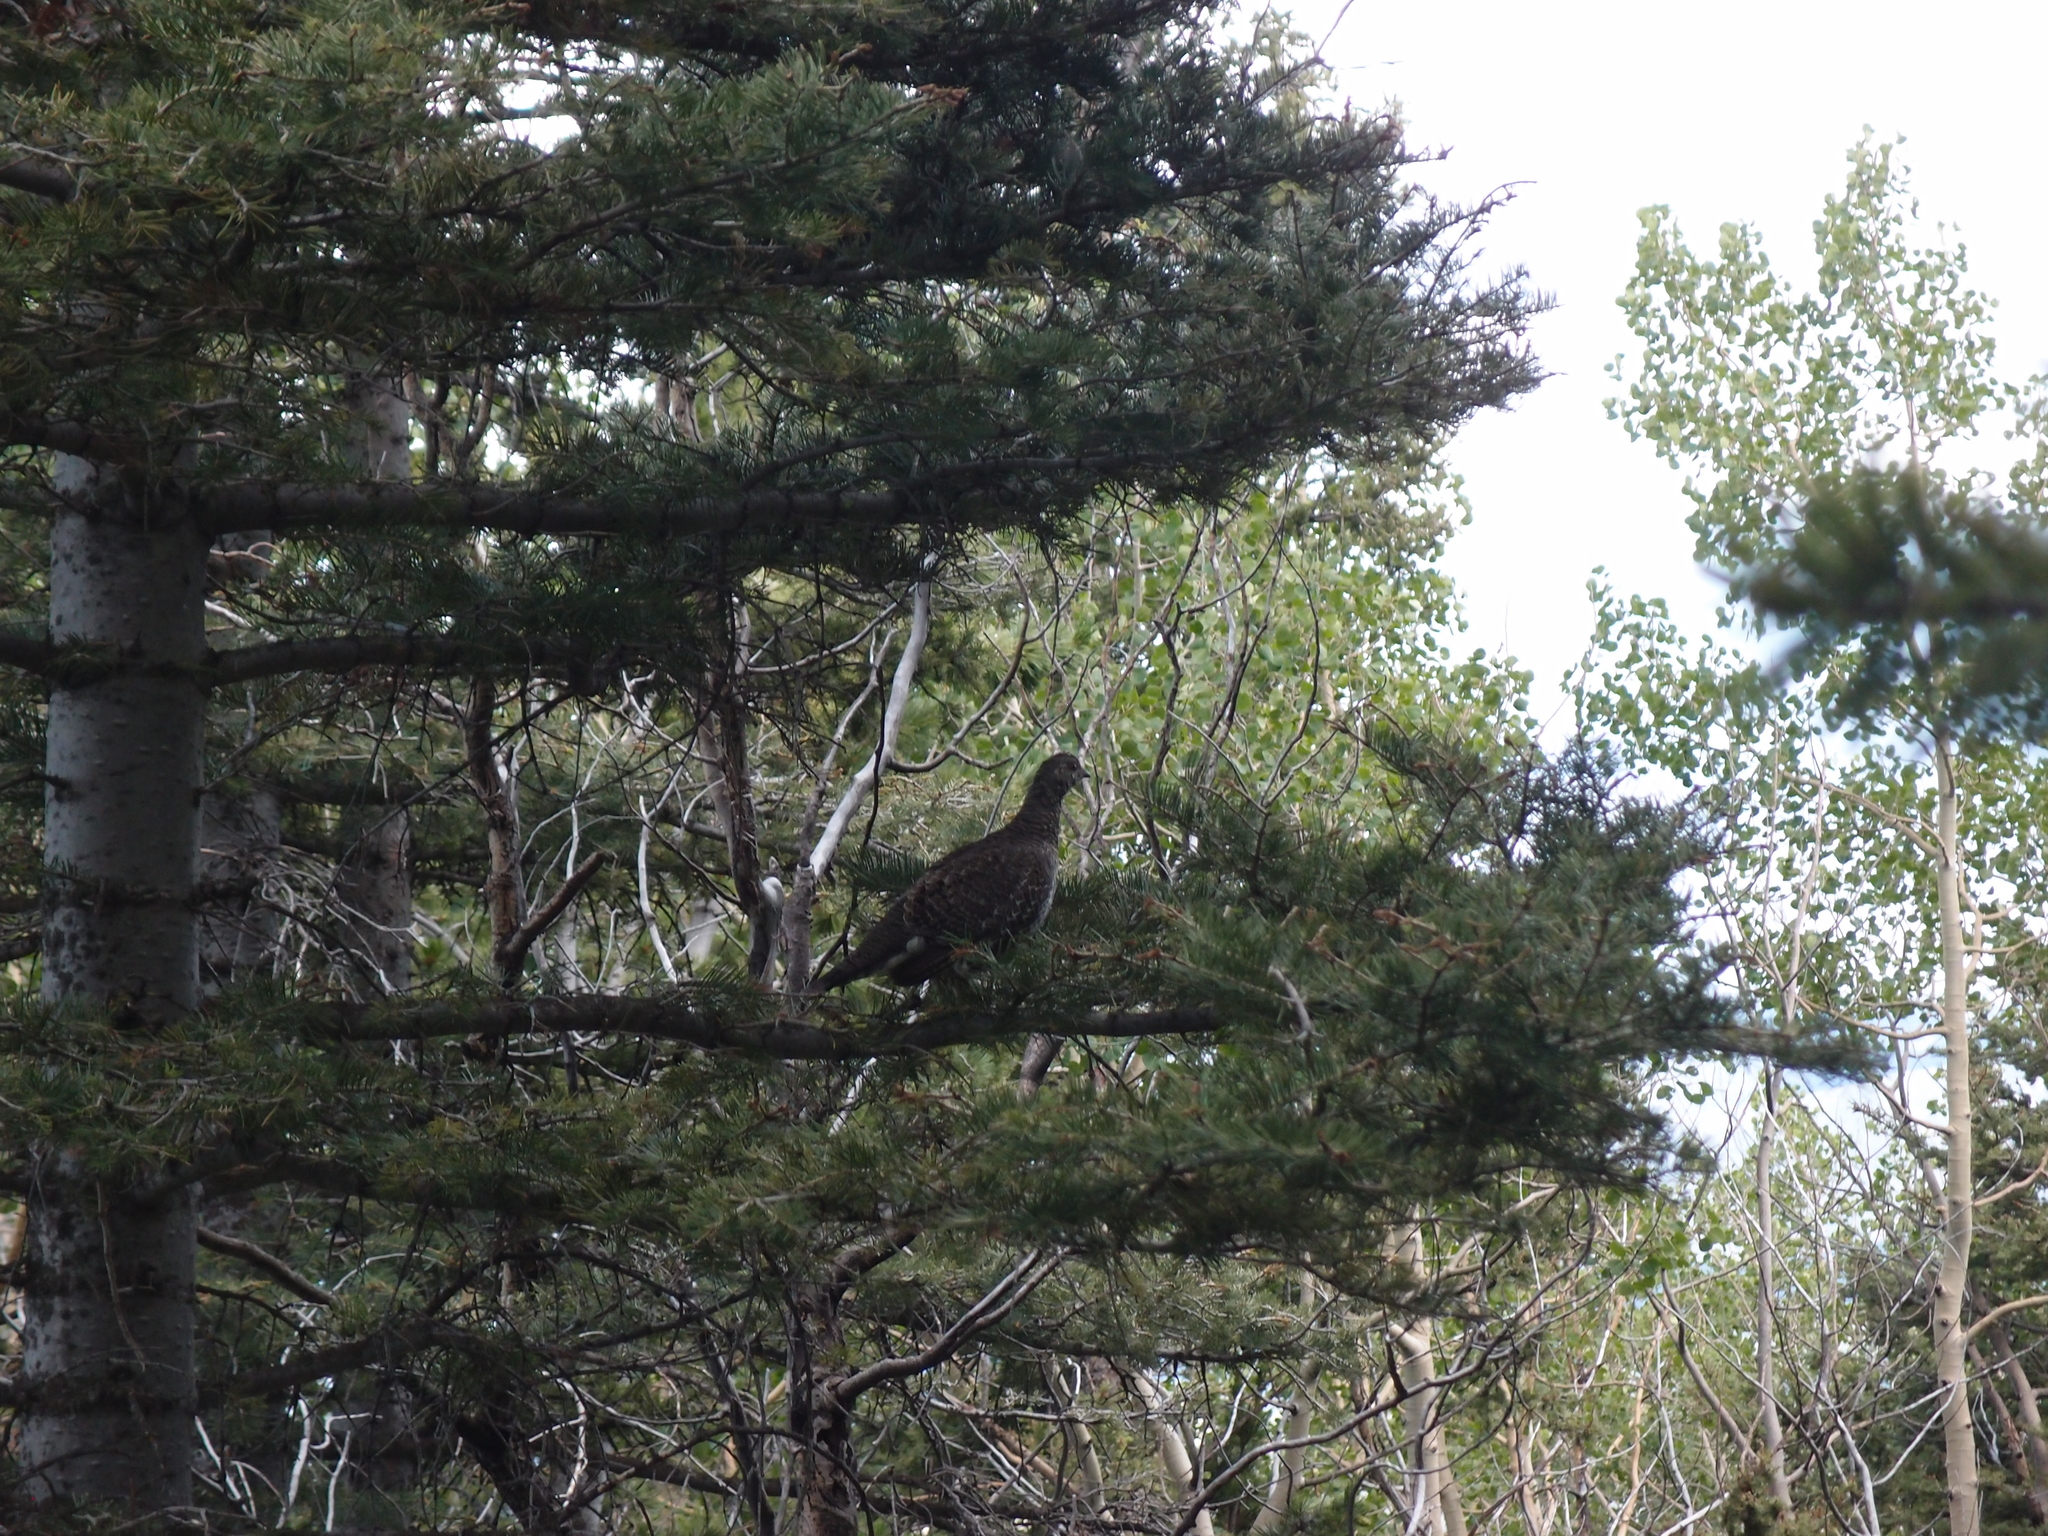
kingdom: Animalia
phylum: Chordata
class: Aves
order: Galliformes
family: Phasianidae
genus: Dendragapus
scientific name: Dendragapus obscurus
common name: Dusky grouse
